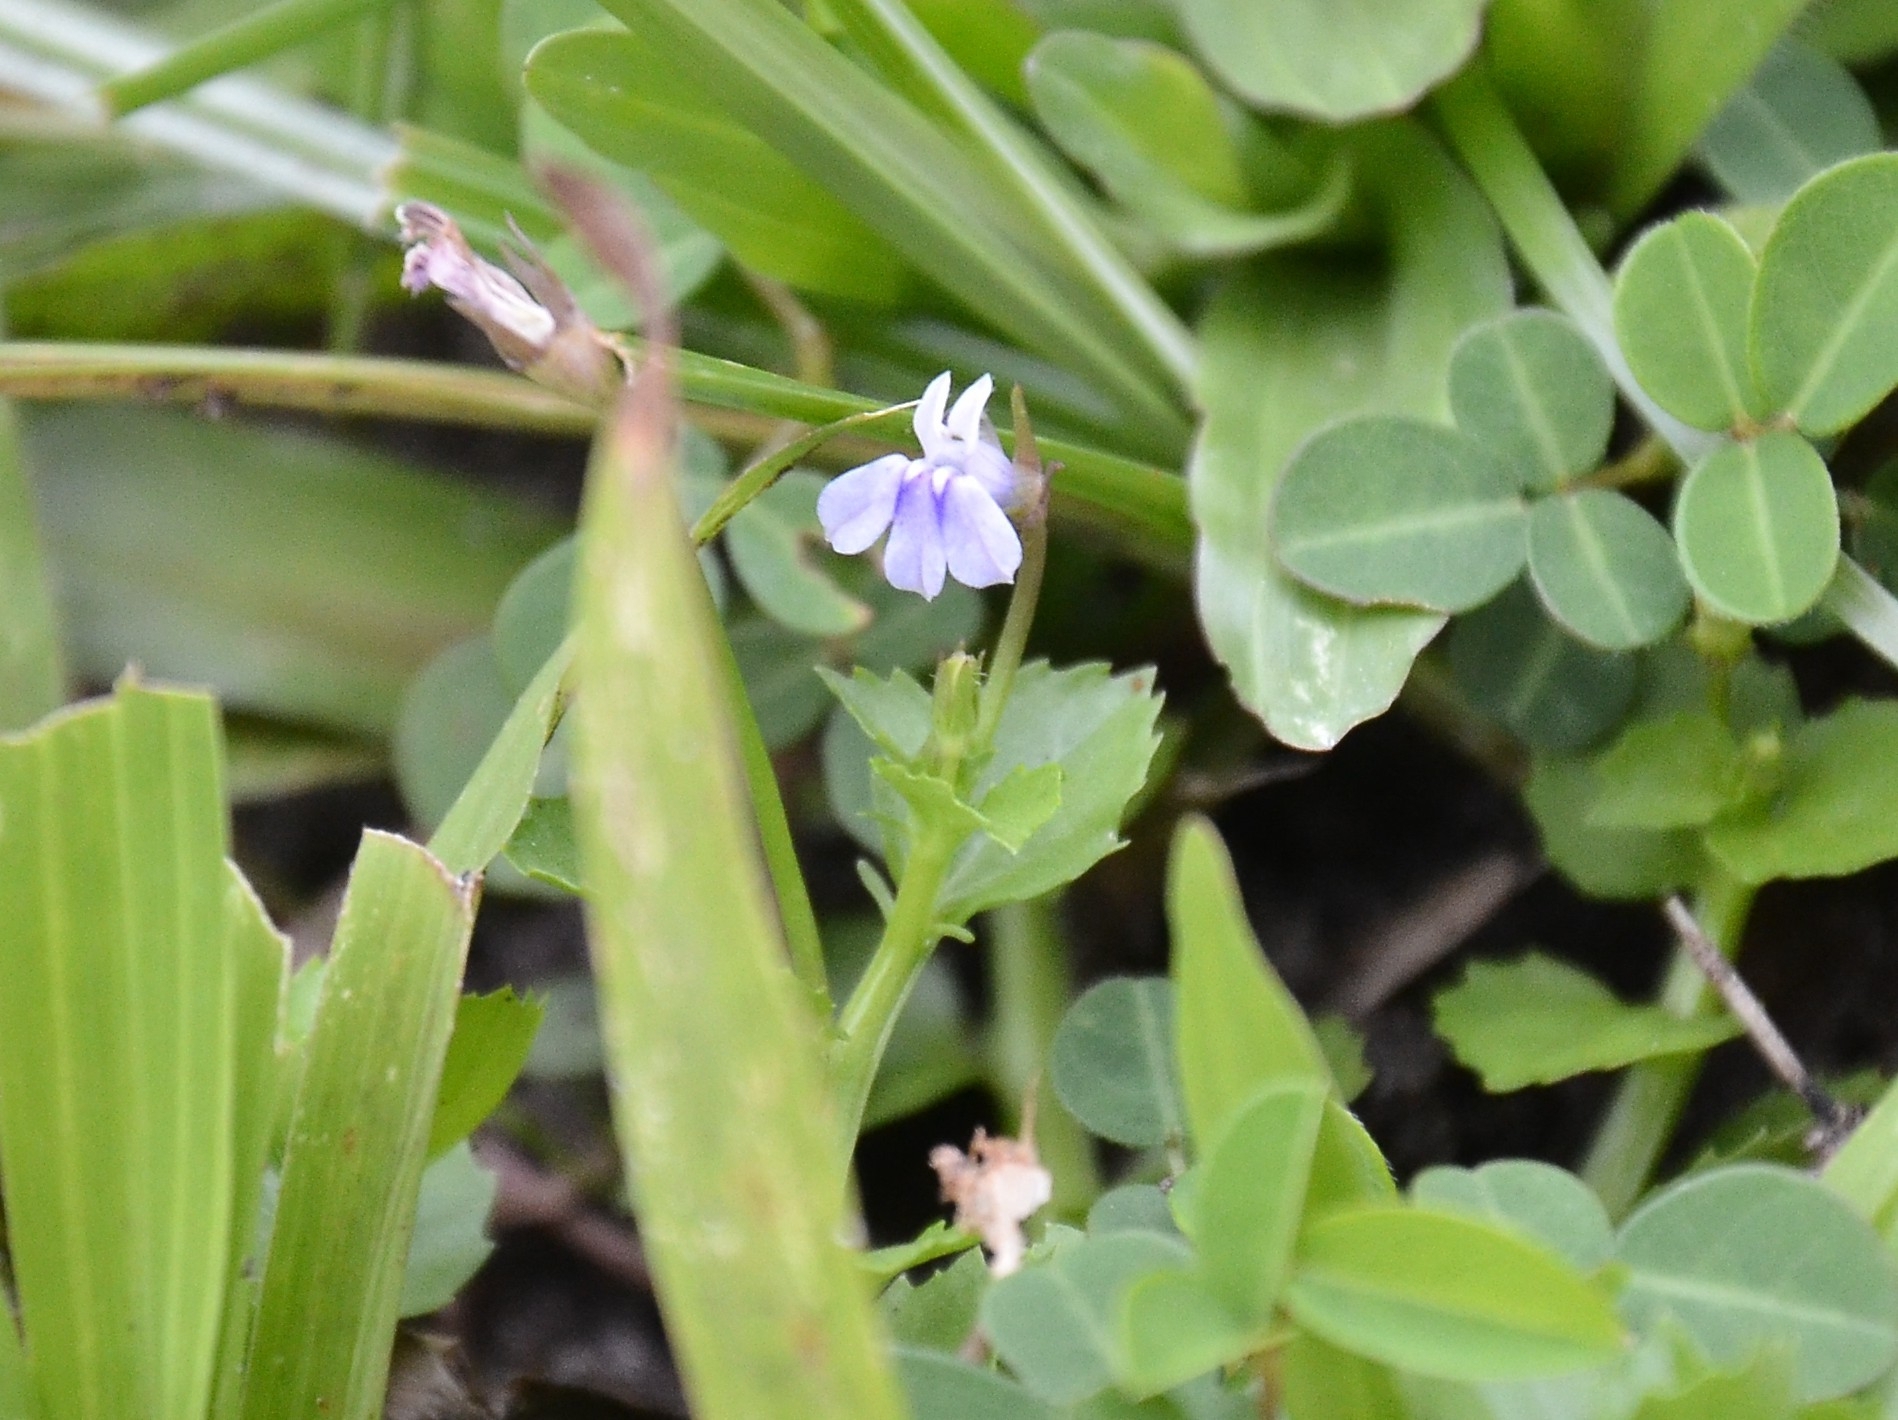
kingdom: Plantae
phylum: Tracheophyta
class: Magnoliopsida
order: Asterales
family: Campanulaceae
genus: Lobelia
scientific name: Lobelia alsinoides
